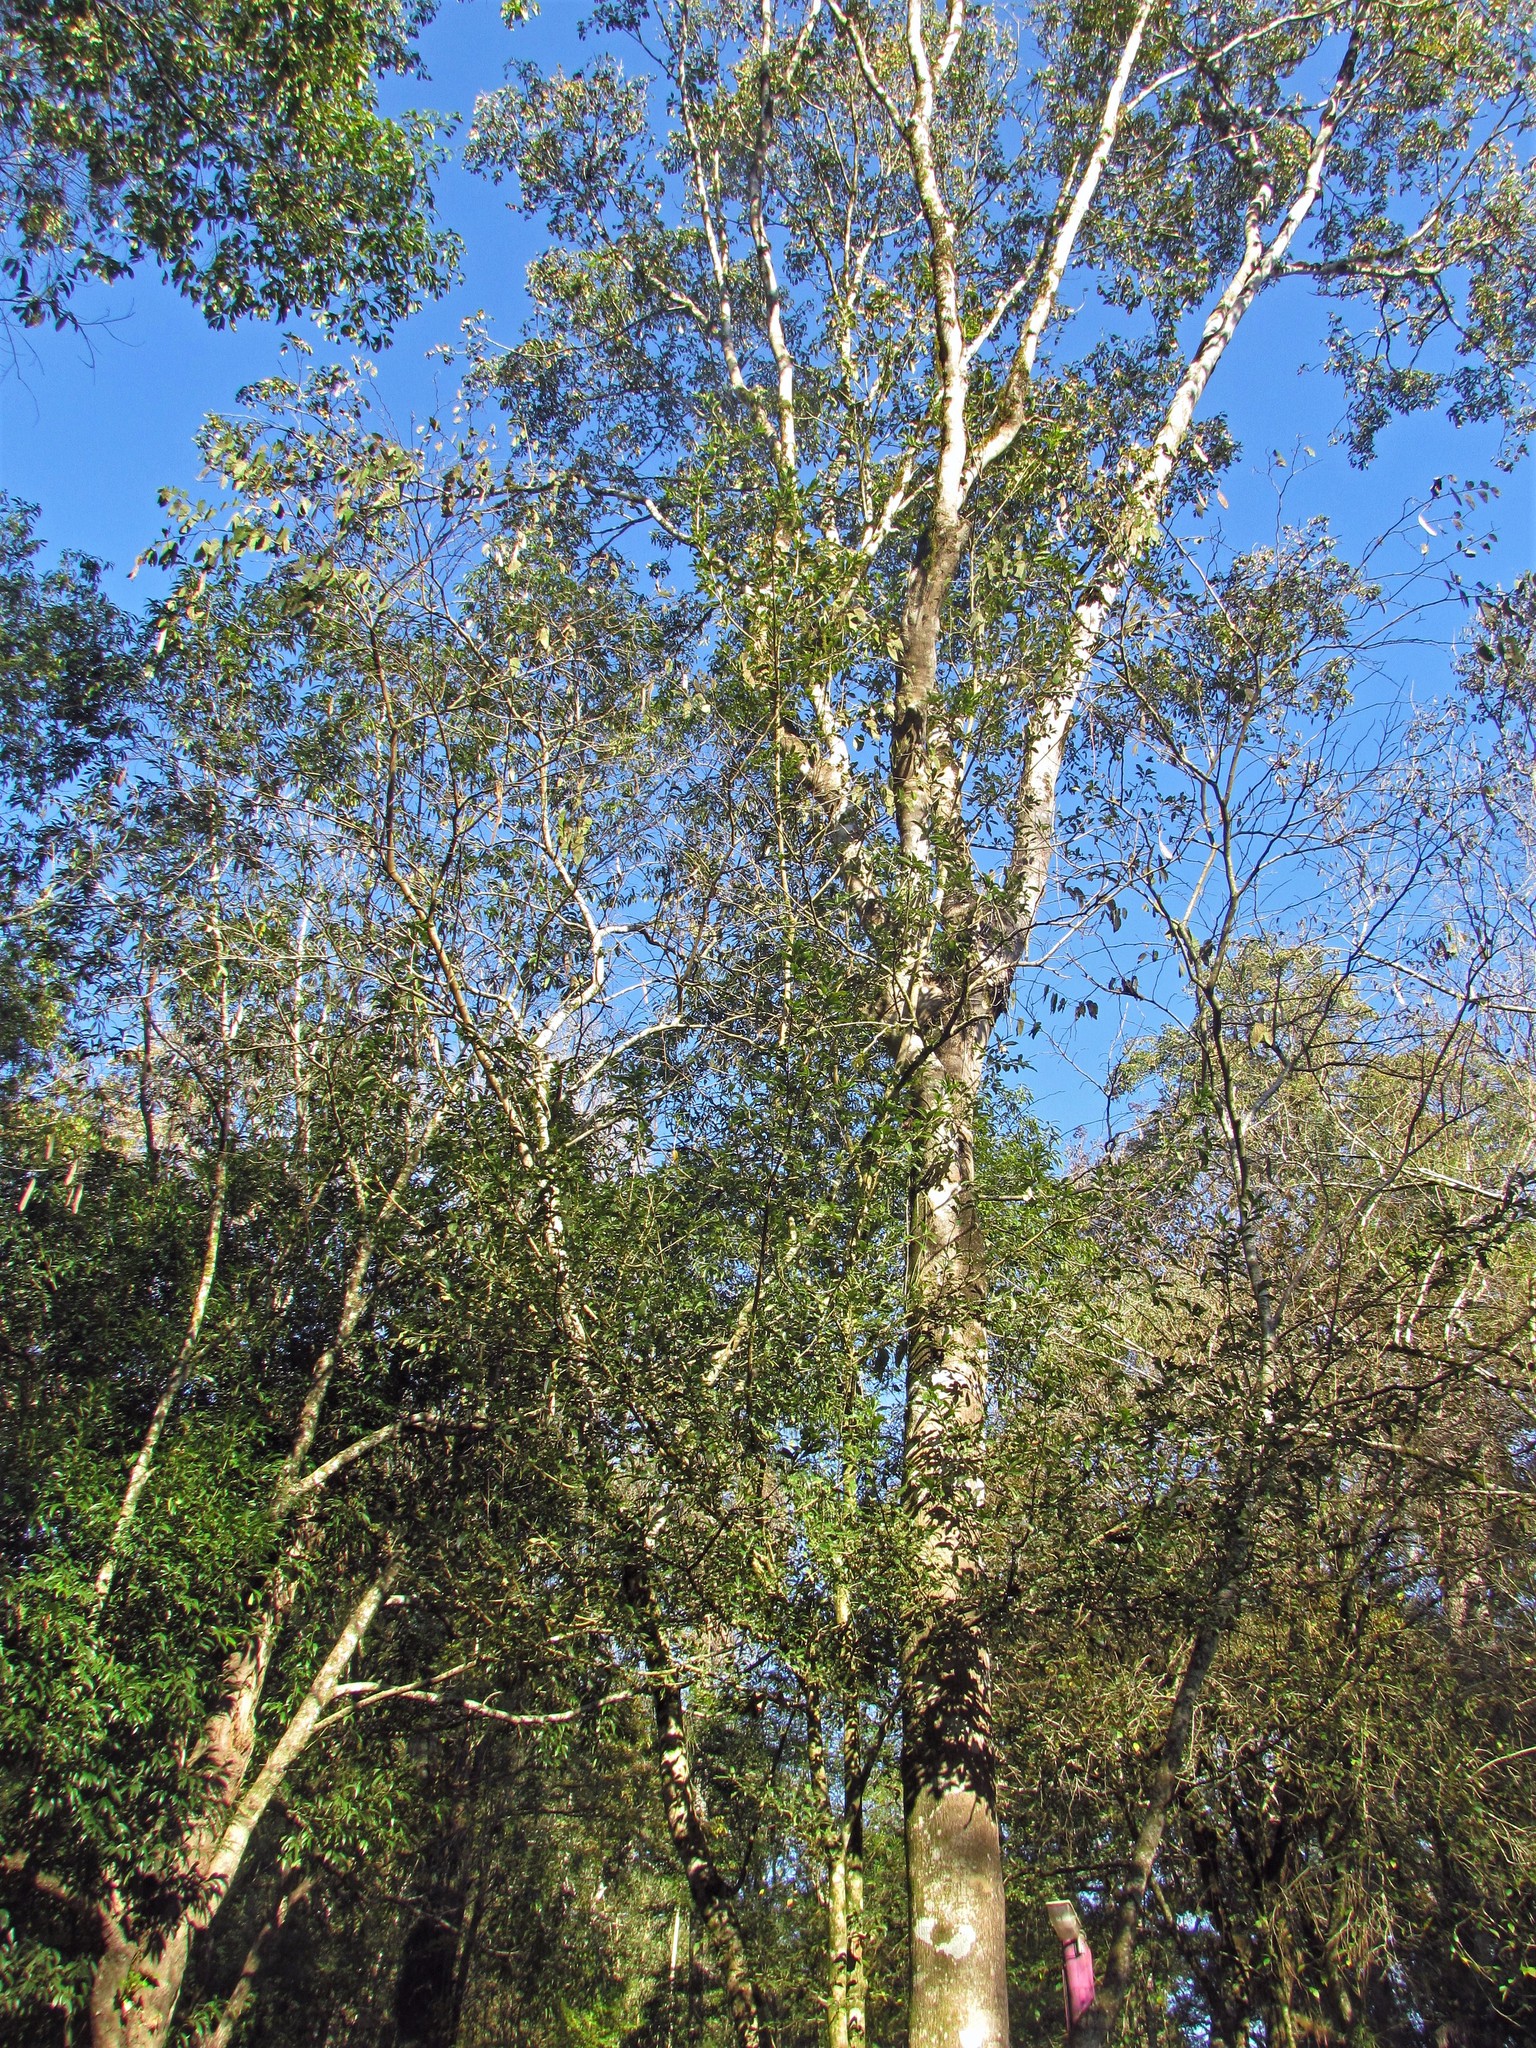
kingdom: Plantae
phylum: Tracheophyta
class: Magnoliopsida
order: Sapindales
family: Rutaceae
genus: Balfourodendron
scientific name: Balfourodendron riedelianum
